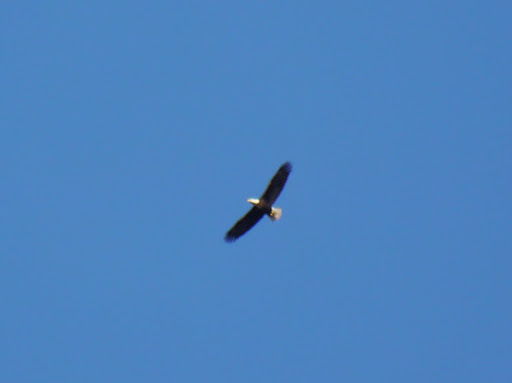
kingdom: Animalia
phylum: Chordata
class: Aves
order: Accipitriformes
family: Accipitridae
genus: Haliaeetus
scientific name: Haliaeetus leucocephalus
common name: Bald eagle
